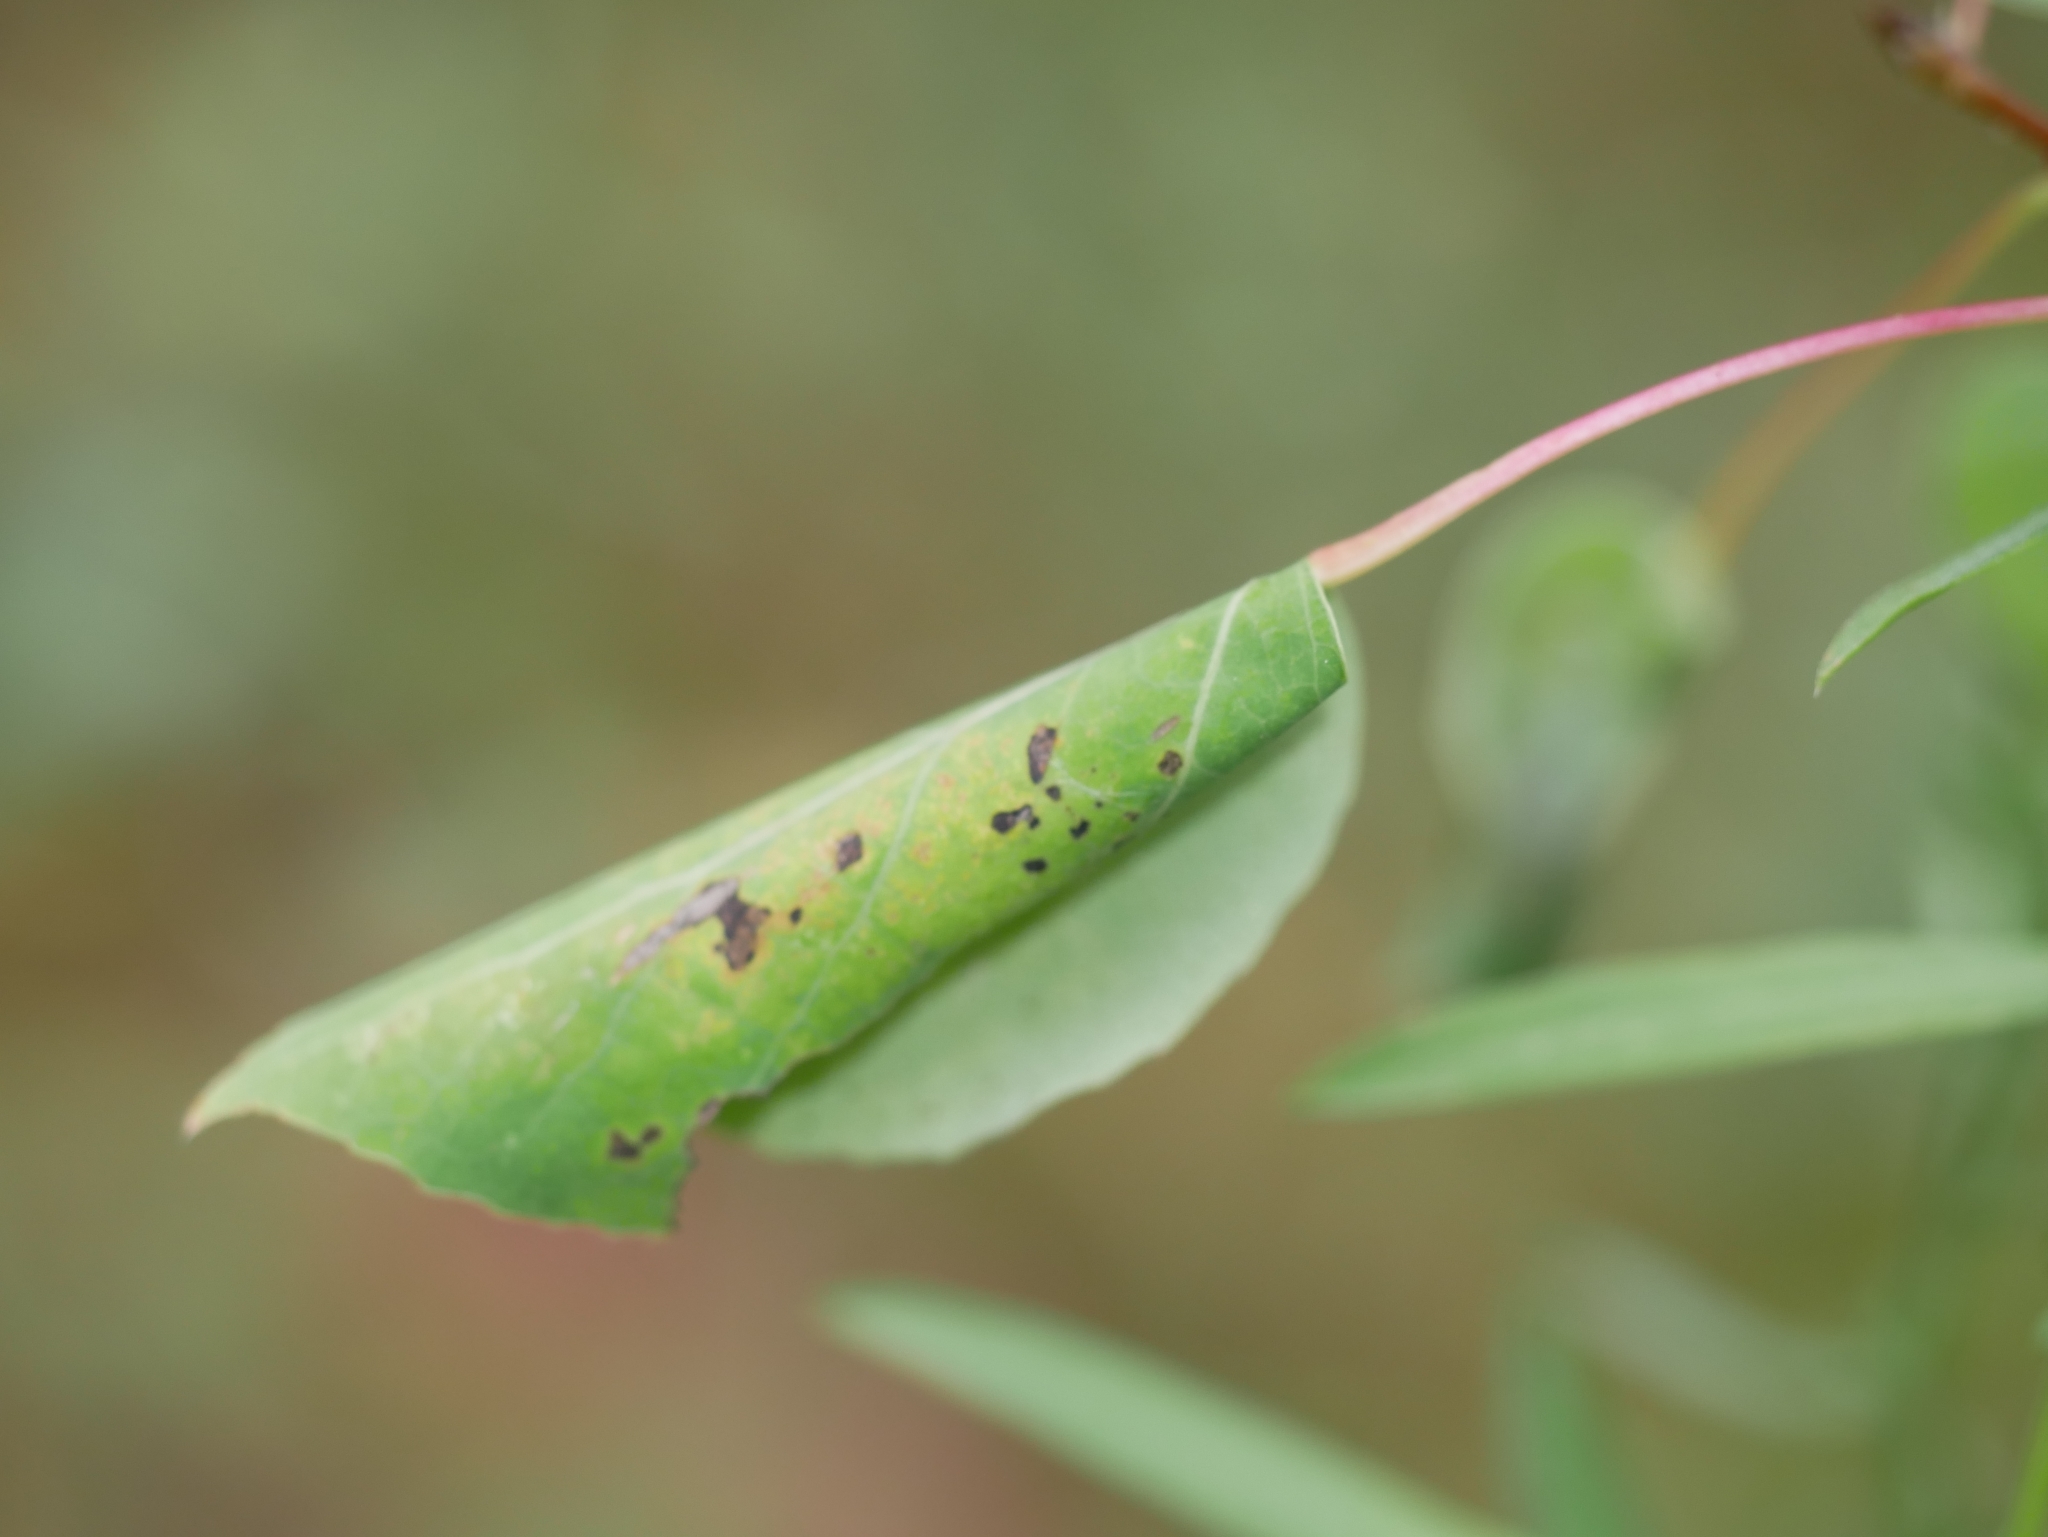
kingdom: Animalia
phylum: Arthropoda
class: Arachnida
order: Araneae
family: Salticidae
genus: Eris
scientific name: Eris militaris
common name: Bronze jumper
